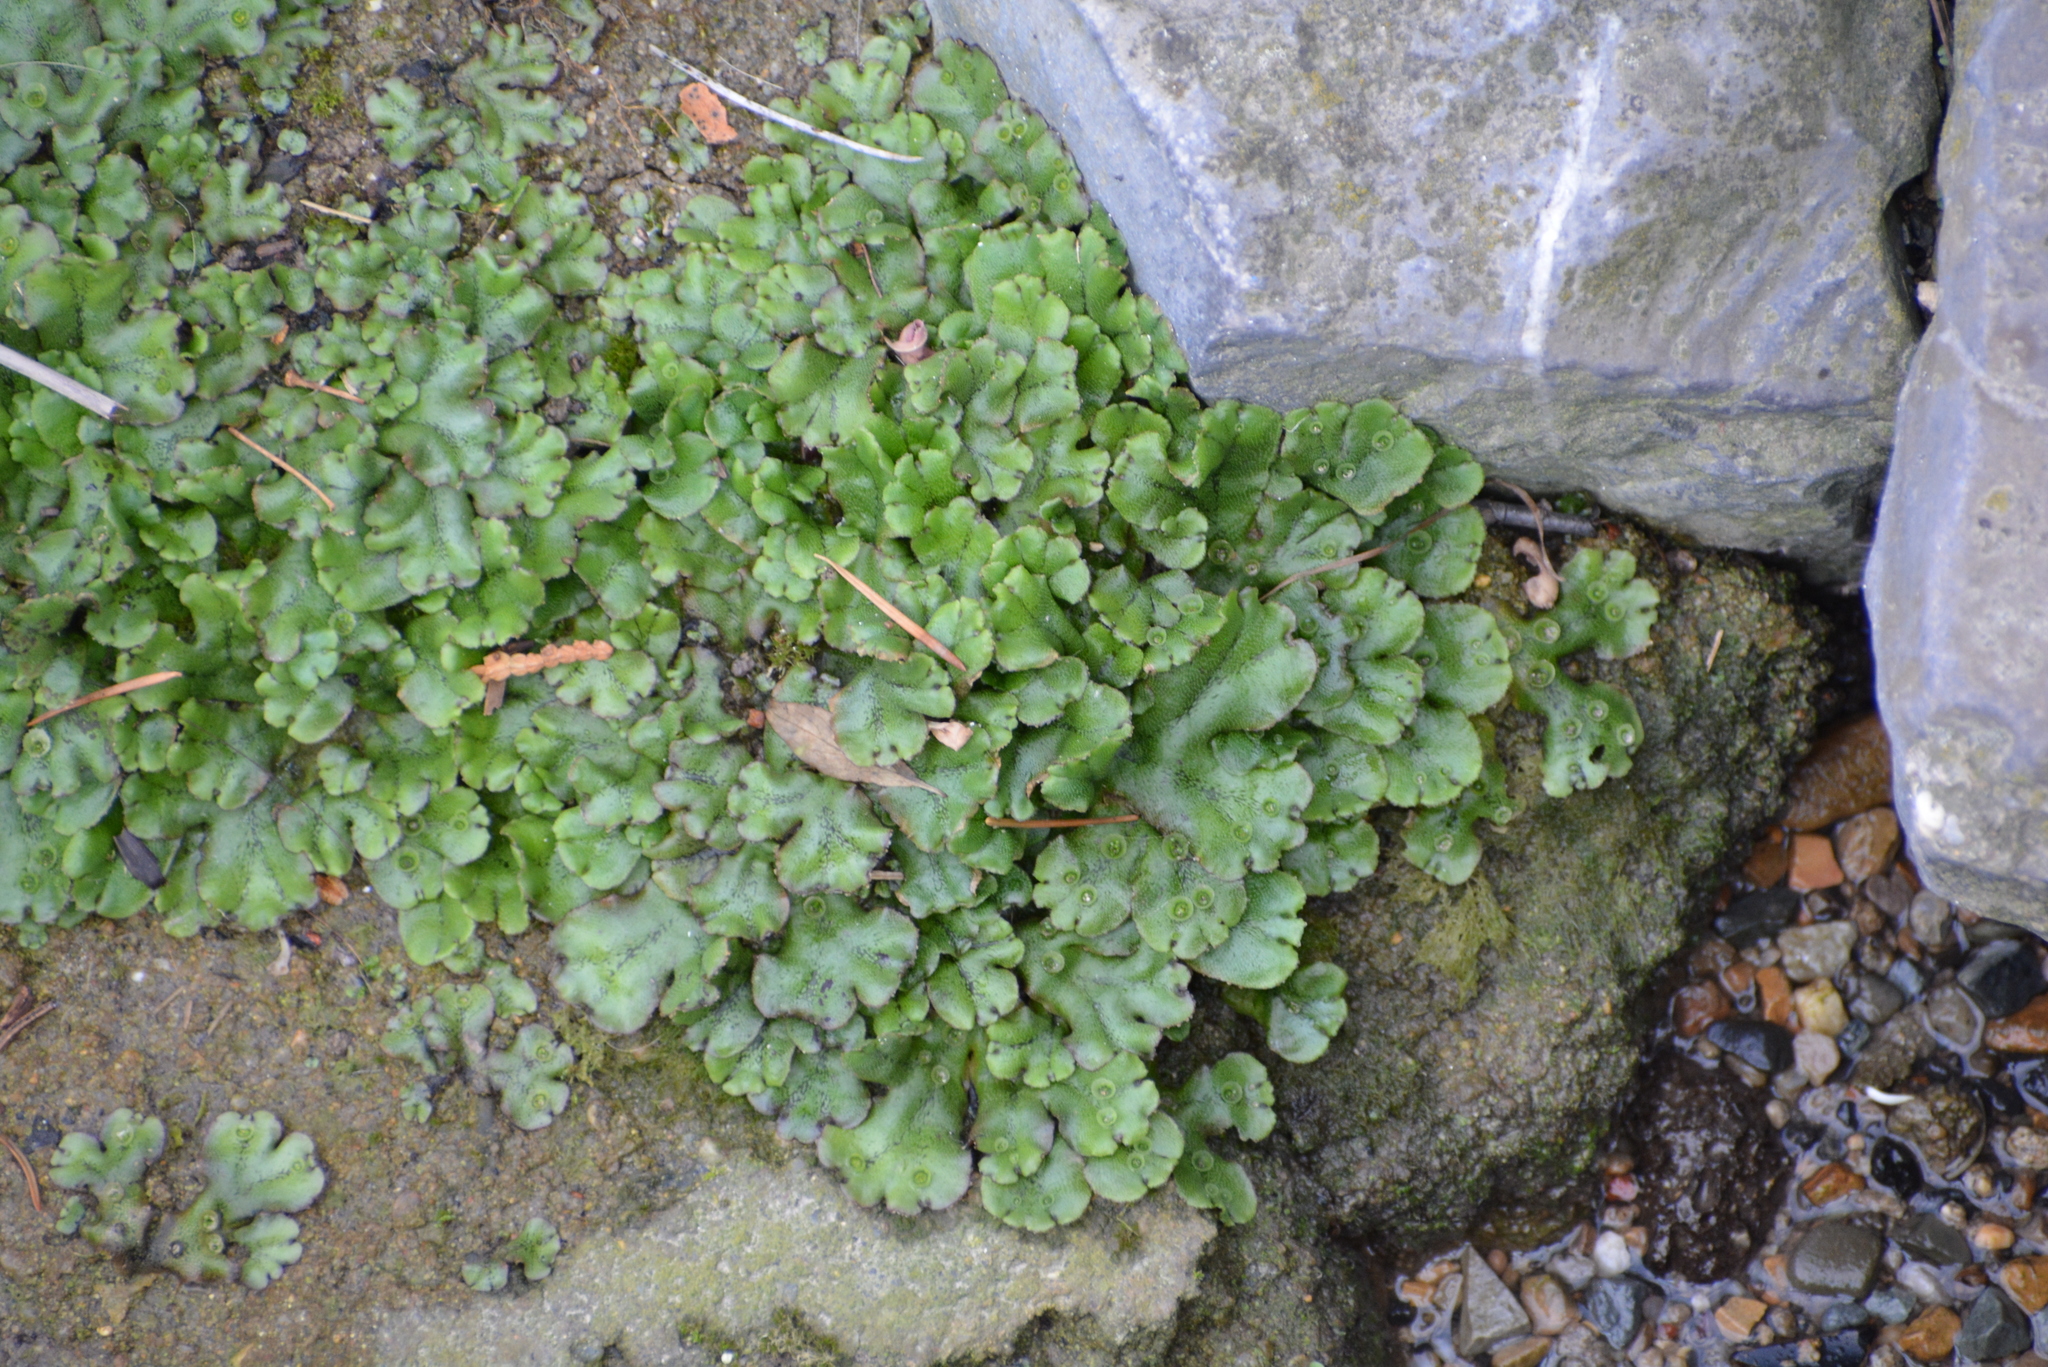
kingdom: Plantae
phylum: Marchantiophyta
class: Marchantiopsida
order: Marchantiales
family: Marchantiaceae
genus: Marchantia
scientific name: Marchantia polymorpha
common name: Common liverwort
